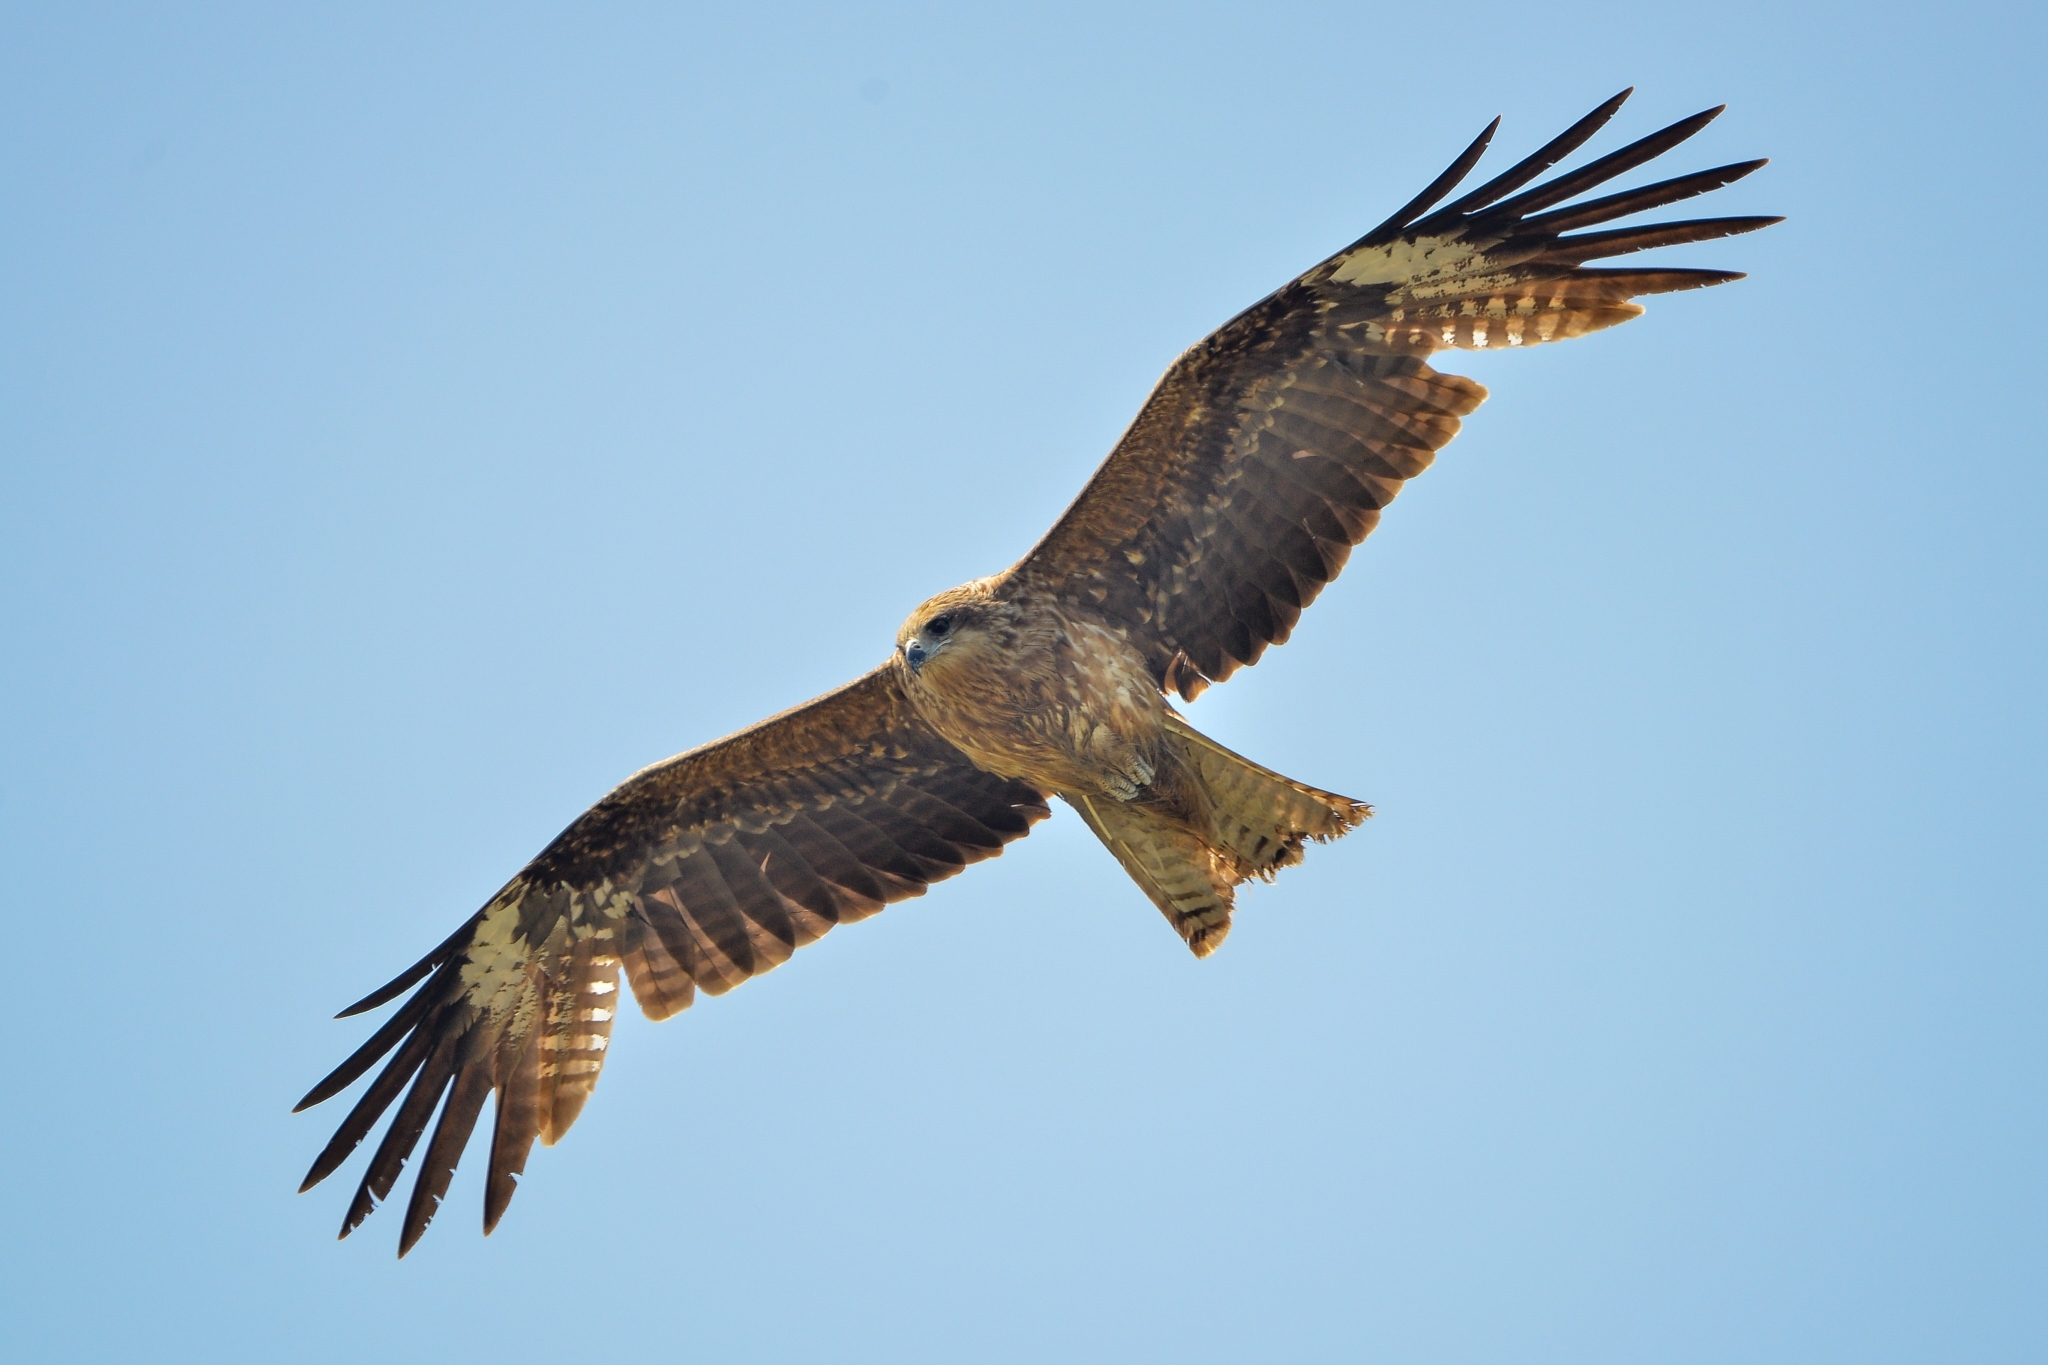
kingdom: Animalia
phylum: Chordata
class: Aves
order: Accipitriformes
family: Accipitridae
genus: Milvus
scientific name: Milvus migrans
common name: Black kite
